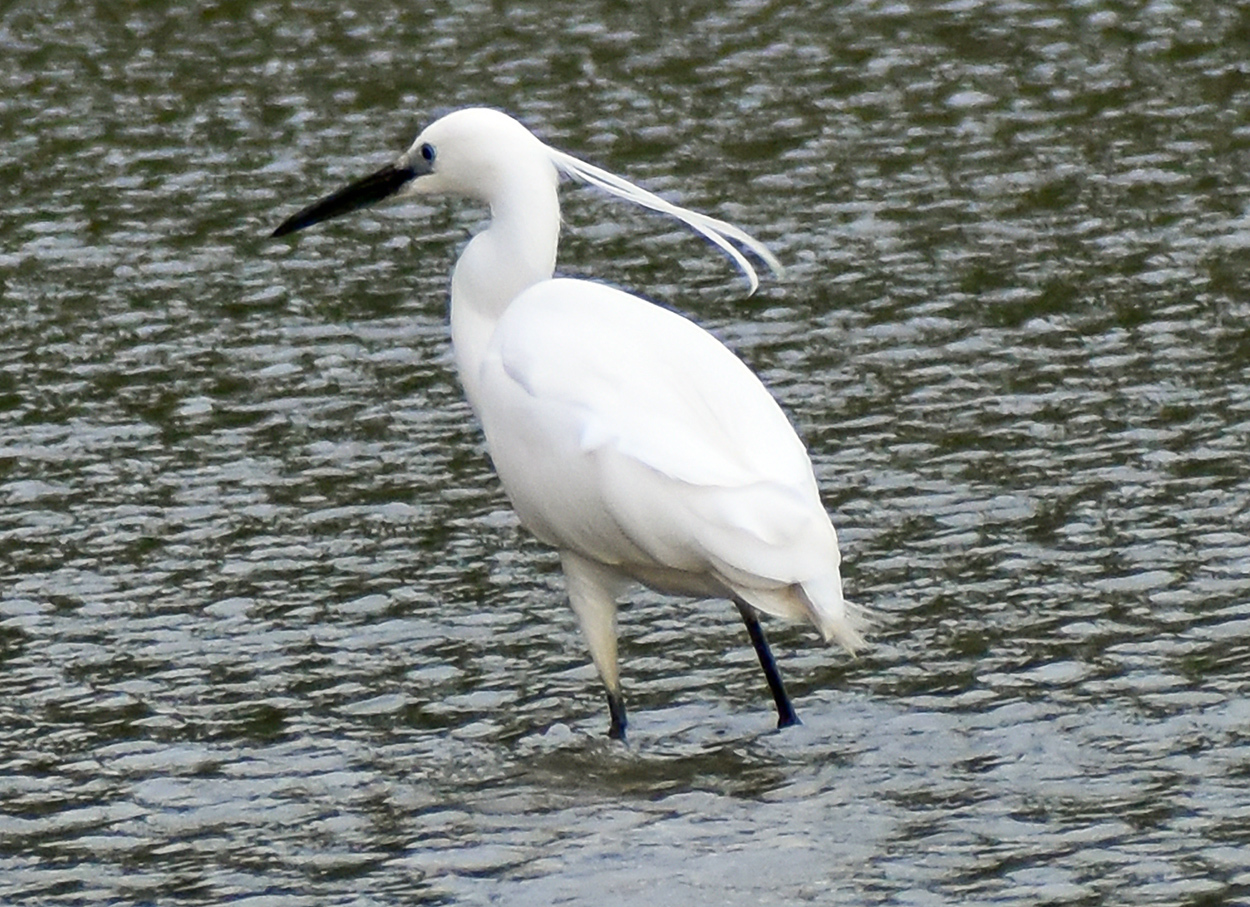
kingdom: Animalia
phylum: Chordata
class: Aves
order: Pelecaniformes
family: Ardeidae
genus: Egretta
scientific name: Egretta garzetta
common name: Little egret
